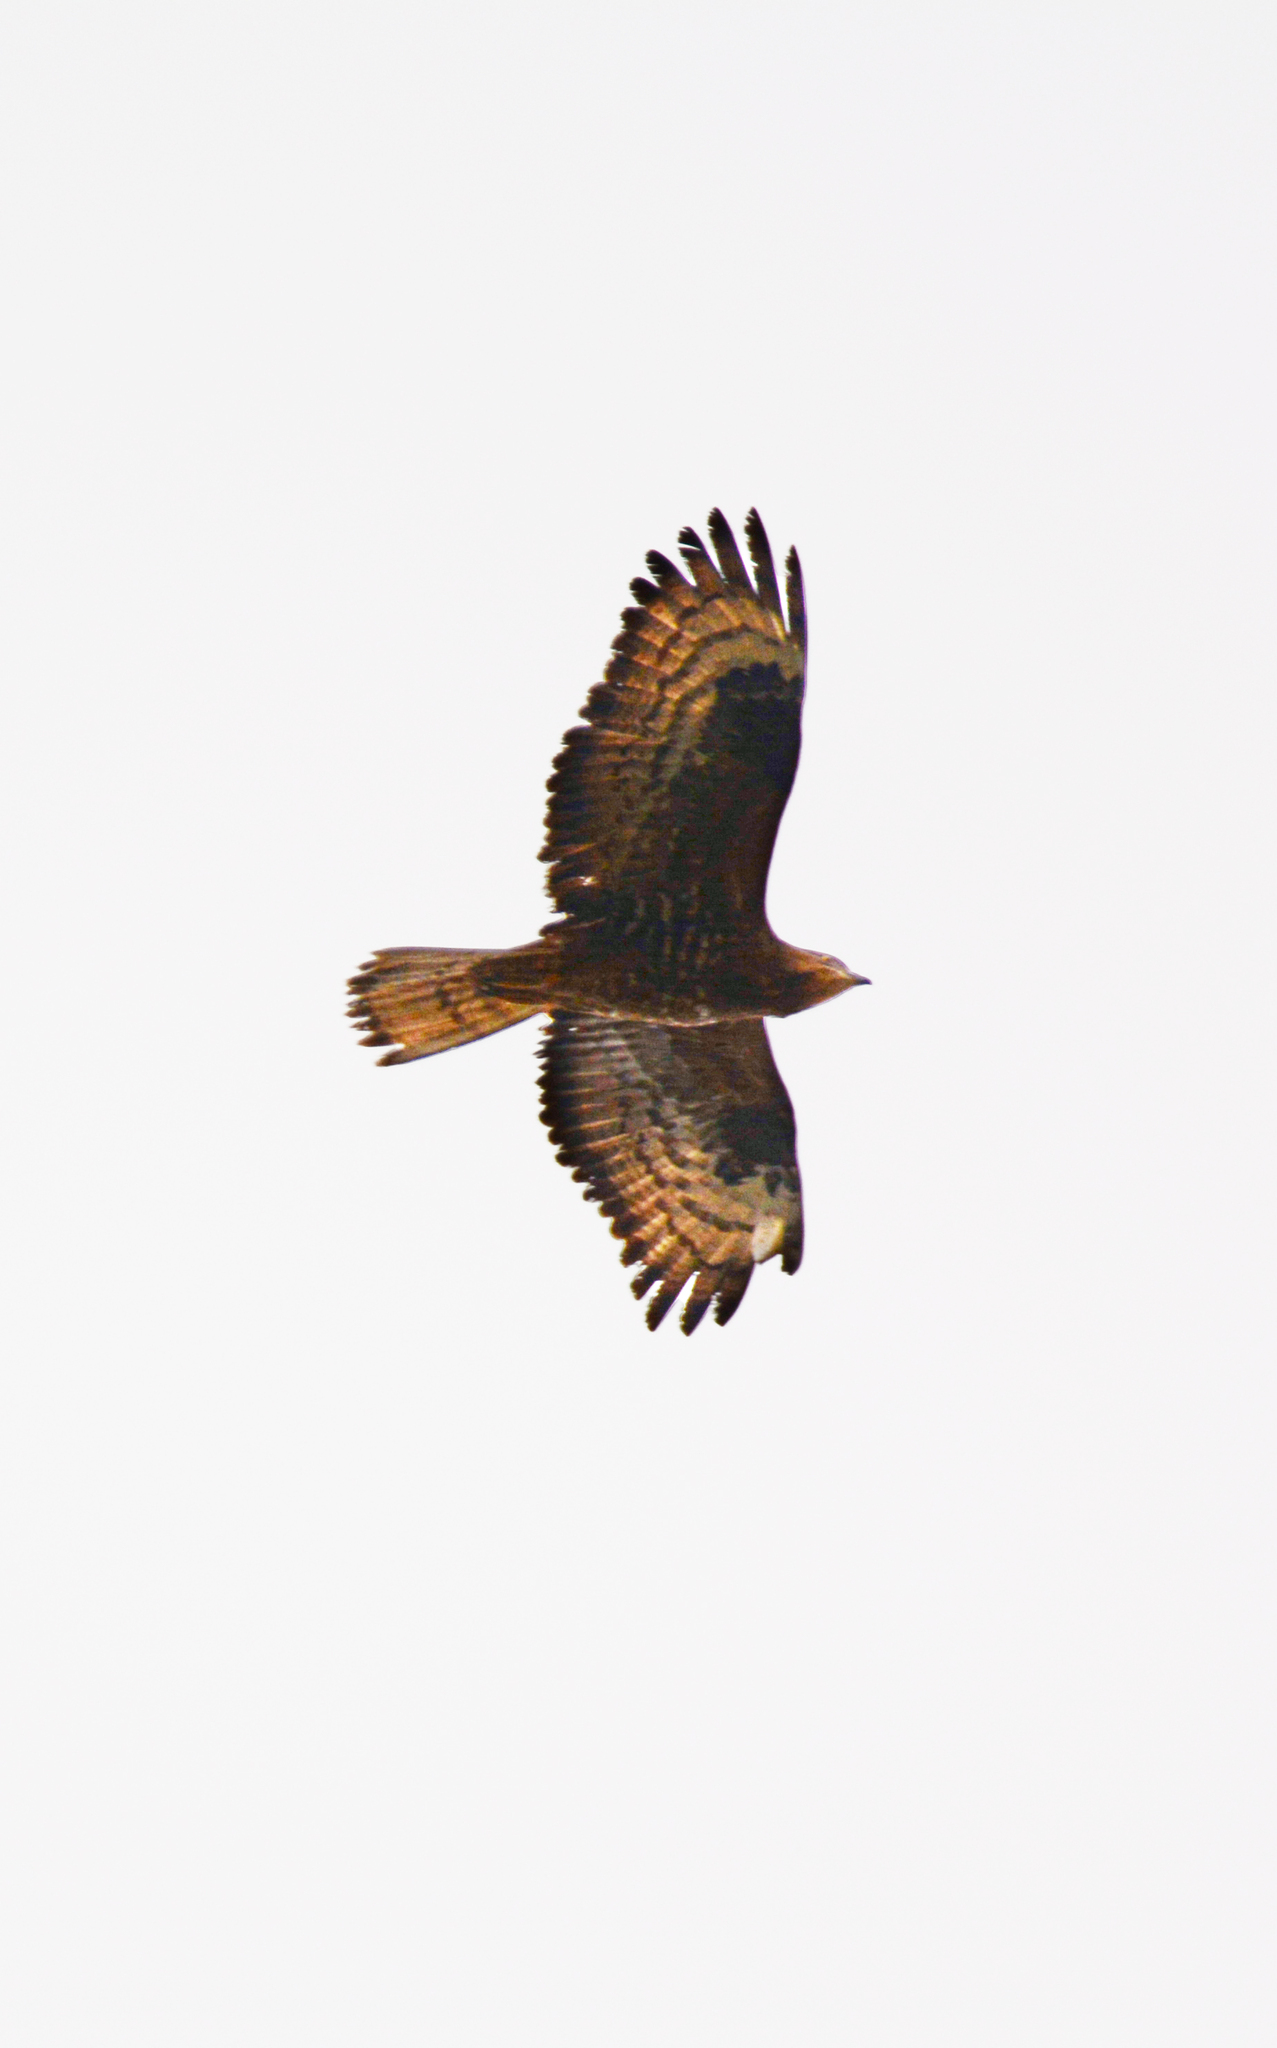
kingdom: Animalia
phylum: Chordata
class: Aves
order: Accipitriformes
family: Accipitridae
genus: Pernis
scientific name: Pernis apivorus
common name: European honey buzzard
